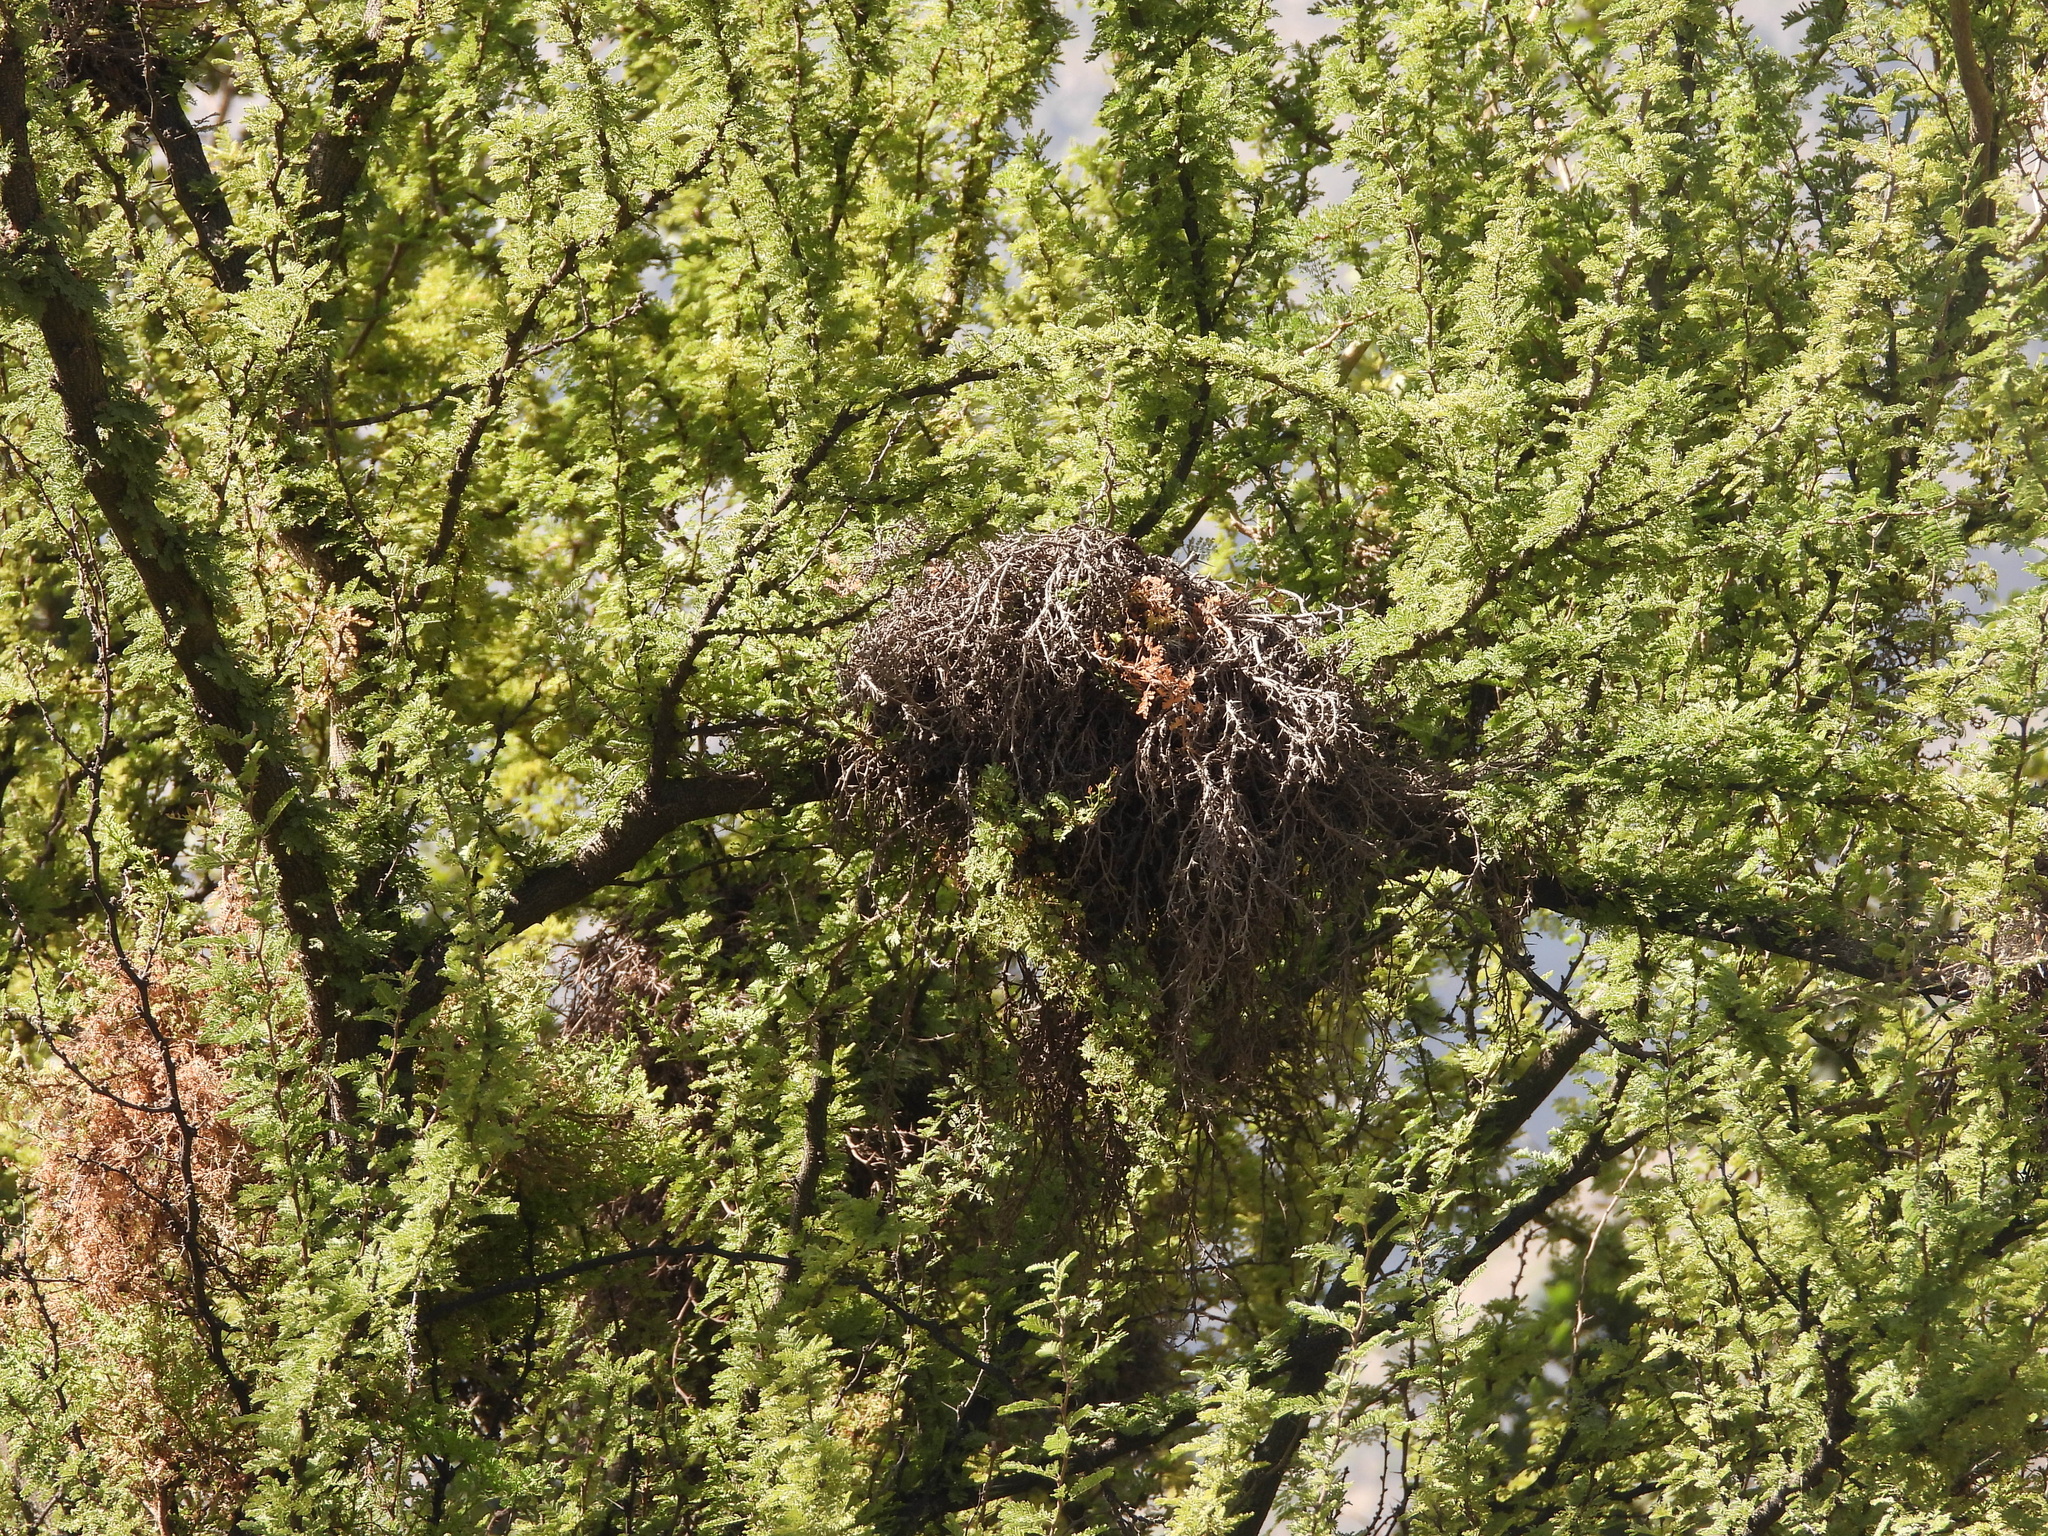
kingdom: Fungi
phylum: Basidiomycota
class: Pucciniomycetes
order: Pucciniales
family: Raveneliaceae
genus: Ravenelia
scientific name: Ravenelia hieronymi
